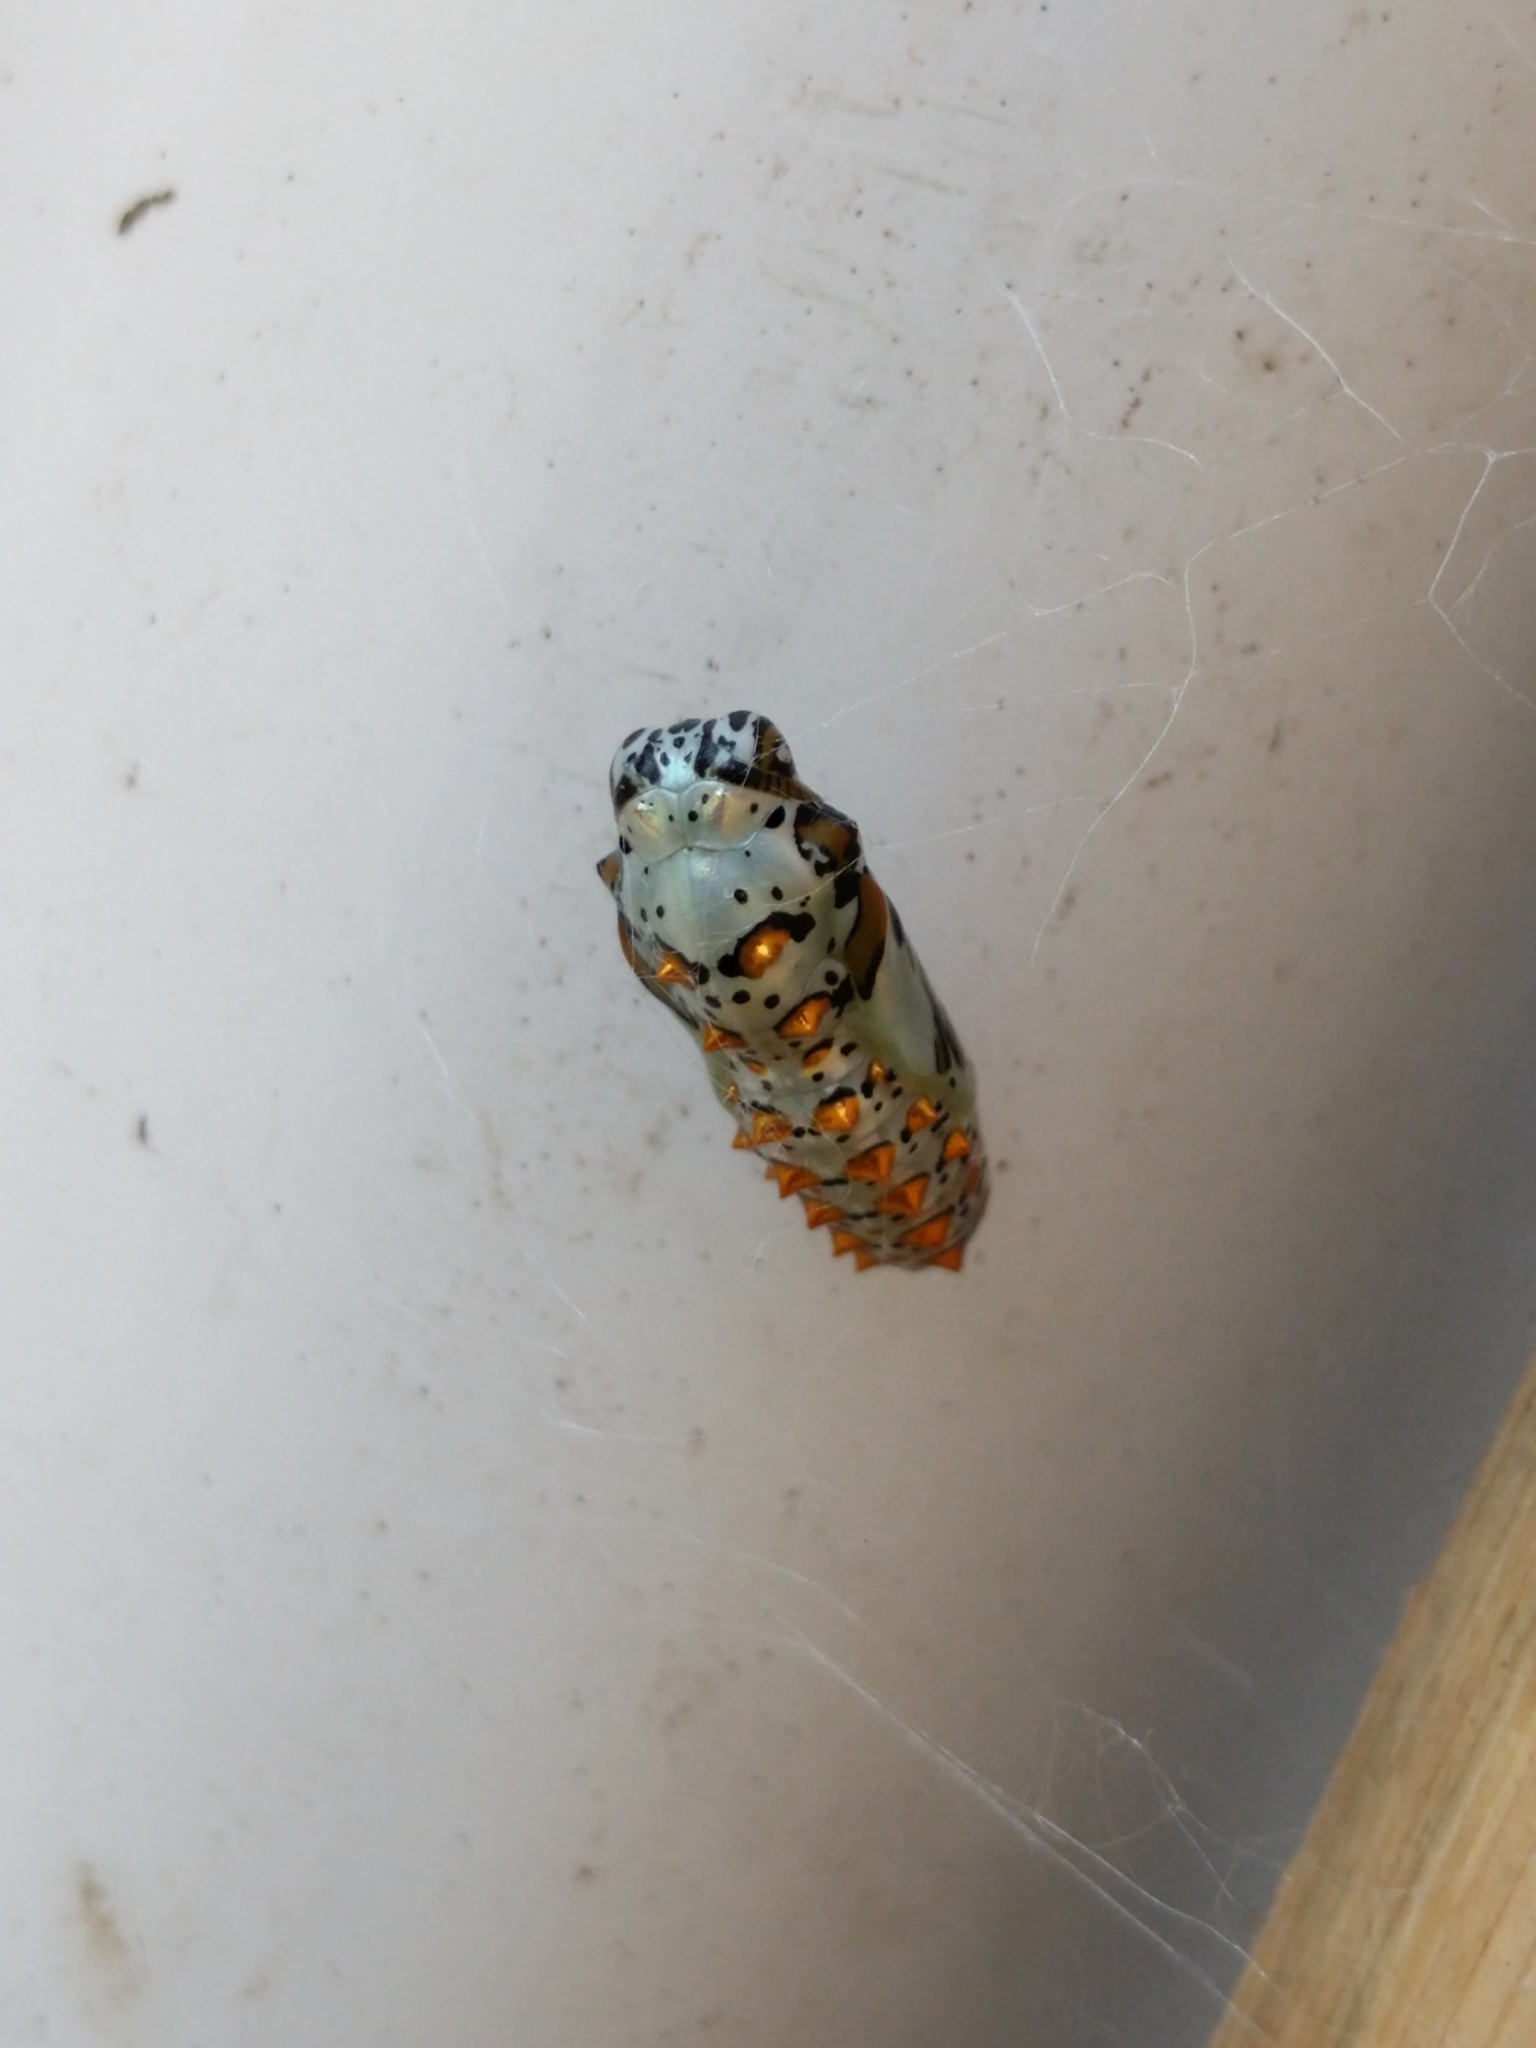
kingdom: Animalia
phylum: Arthropoda
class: Insecta
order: Lepidoptera
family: Nymphalidae
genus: Euptoieta
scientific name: Euptoieta claudia
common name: Variegated fritillary
